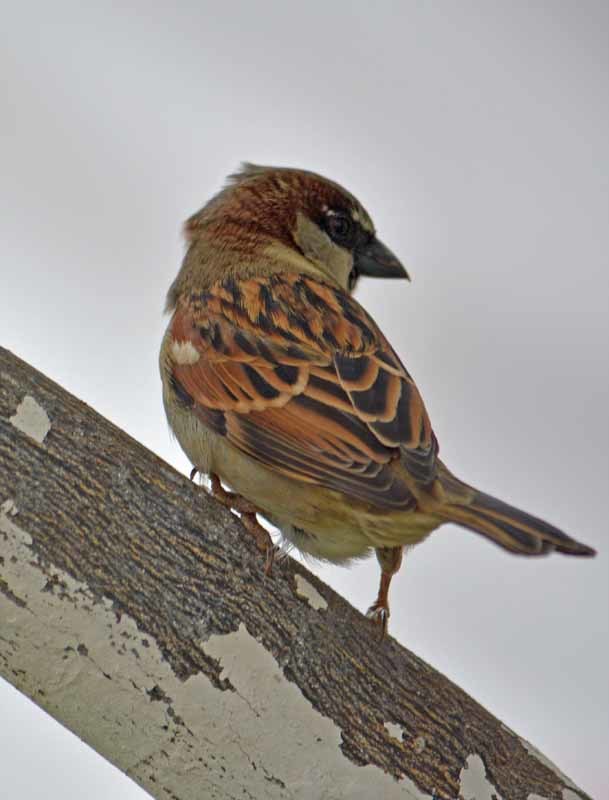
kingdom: Animalia
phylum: Chordata
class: Aves
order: Passeriformes
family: Passeridae
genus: Passer
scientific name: Passer domesticus
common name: House sparrow
